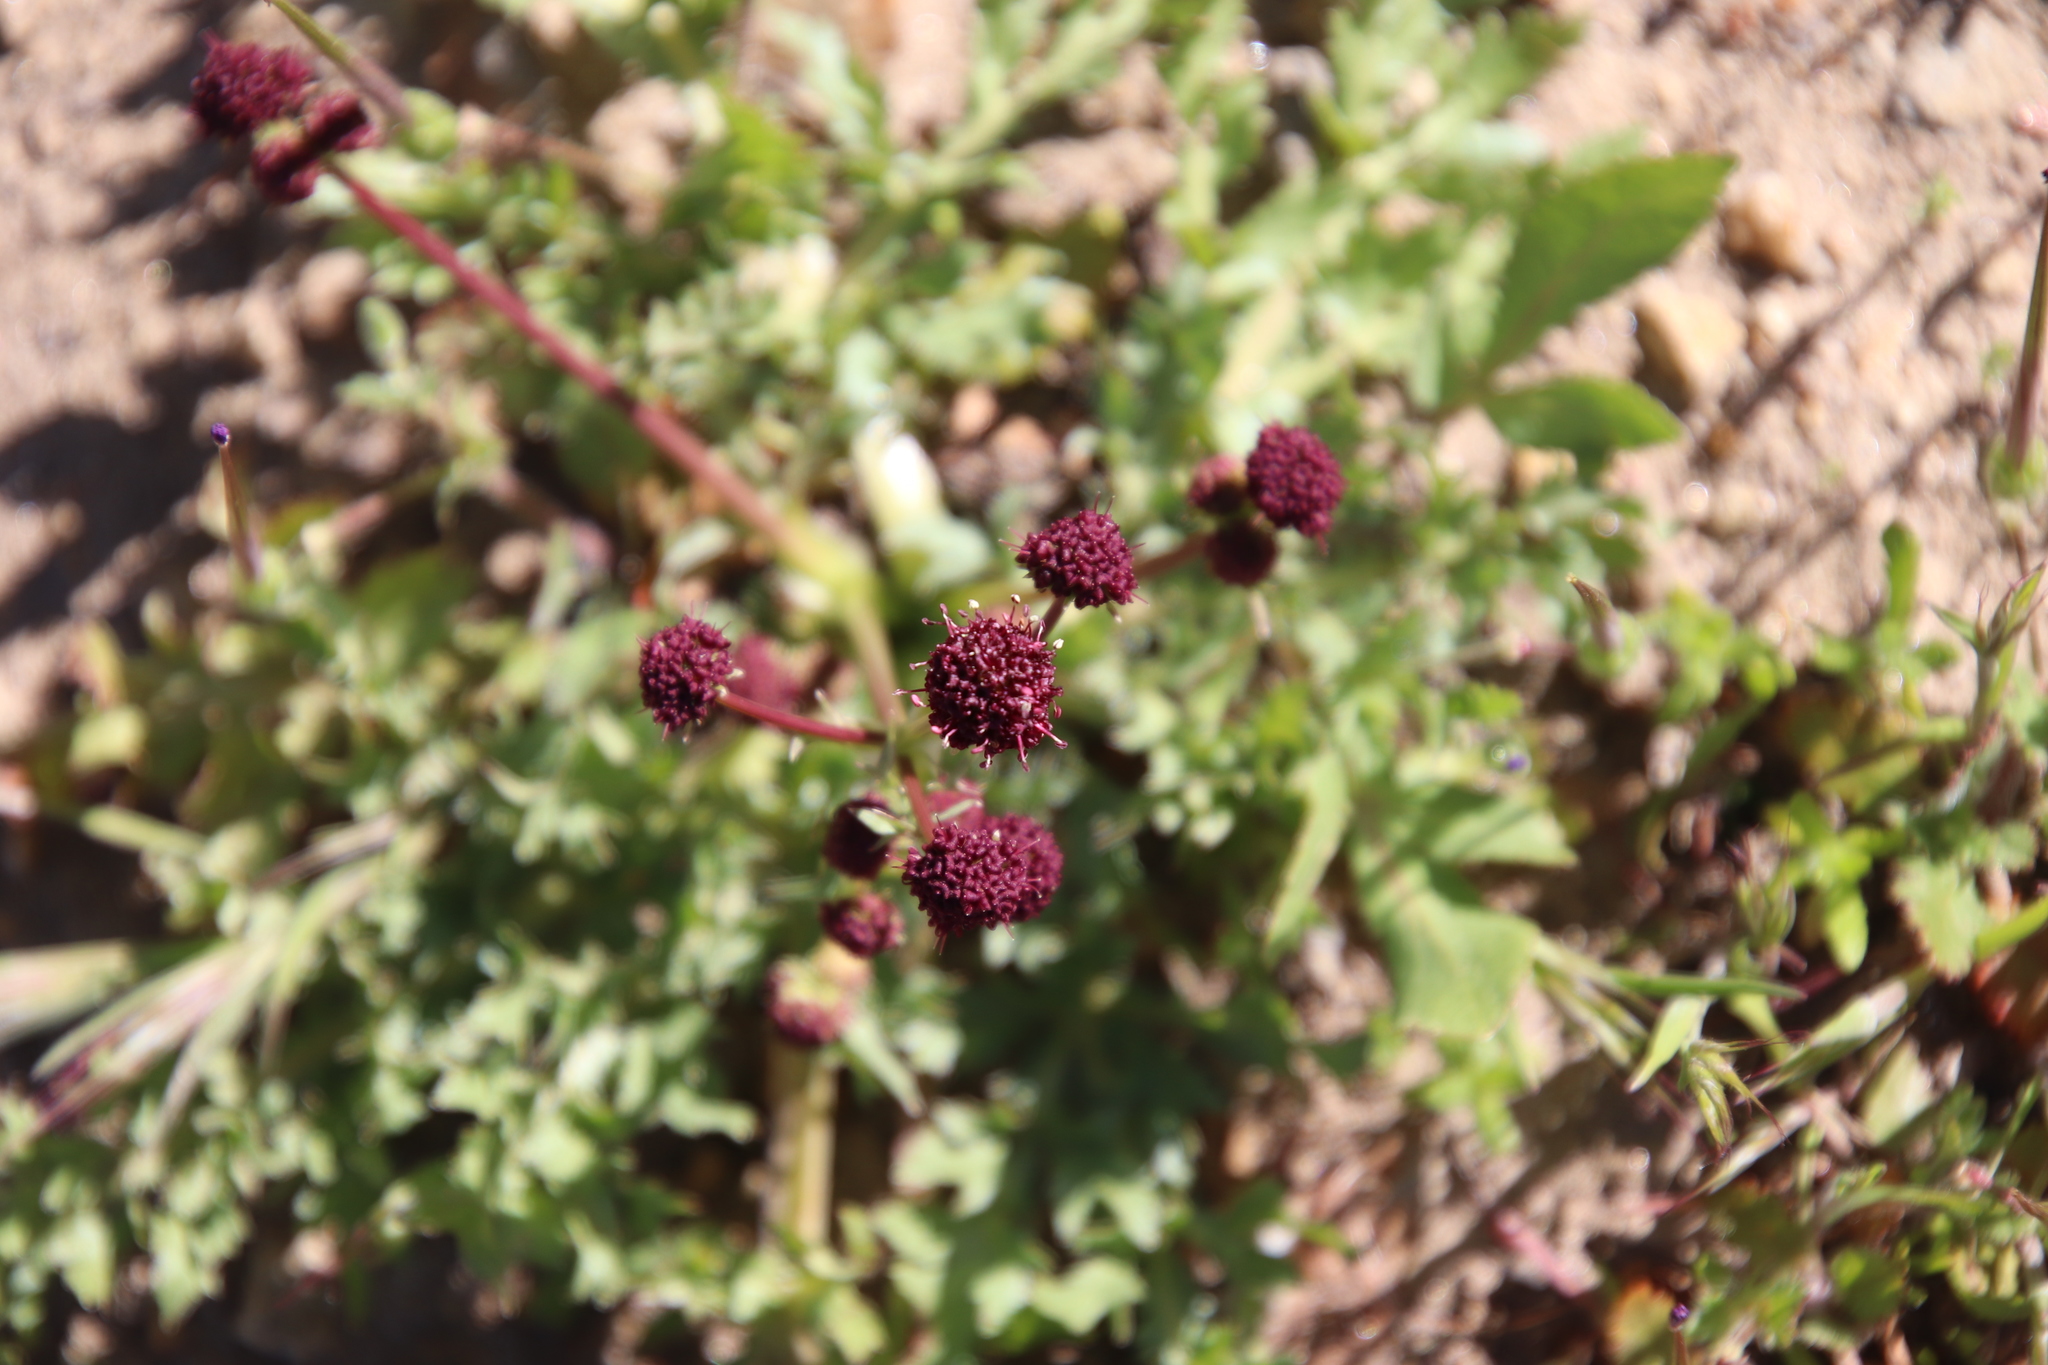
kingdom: Plantae
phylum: Tracheophyta
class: Magnoliopsida
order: Apiales
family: Apiaceae
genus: Sanicula
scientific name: Sanicula bipinnatifida
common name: Shoe-buttons
